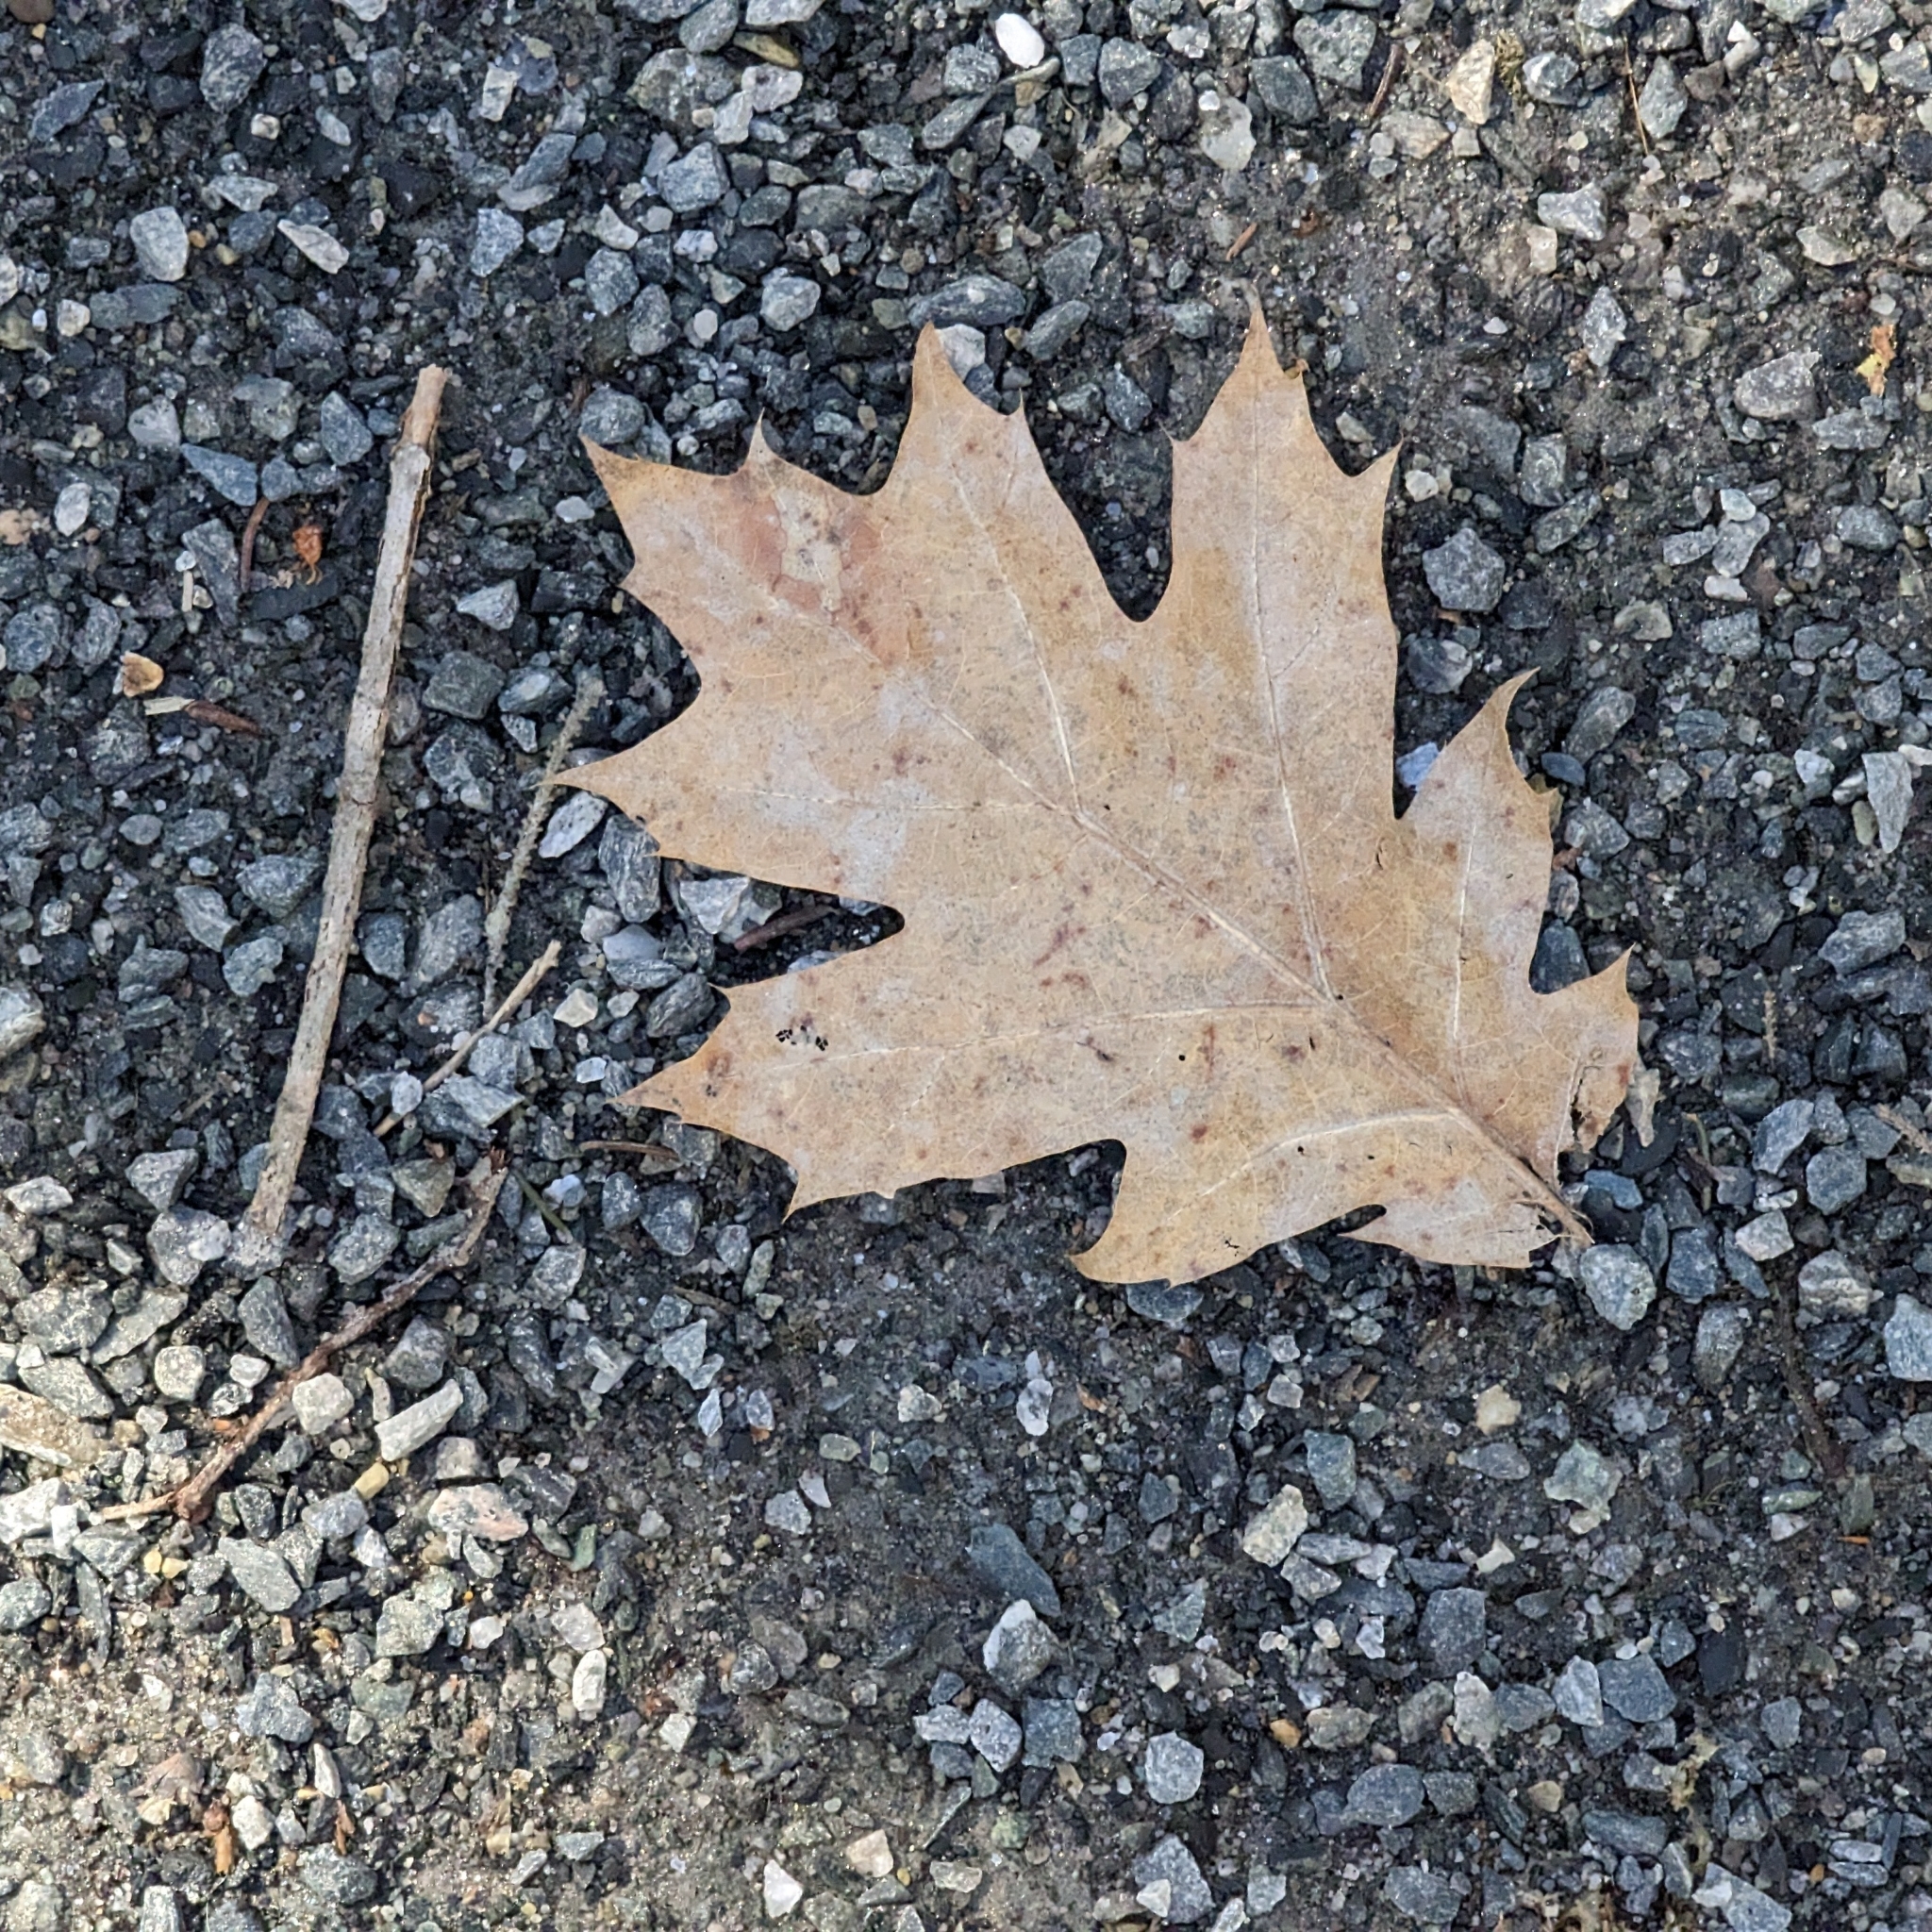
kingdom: Plantae
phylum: Tracheophyta
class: Magnoliopsida
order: Fagales
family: Fagaceae
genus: Quercus
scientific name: Quercus rubra
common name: Red oak
